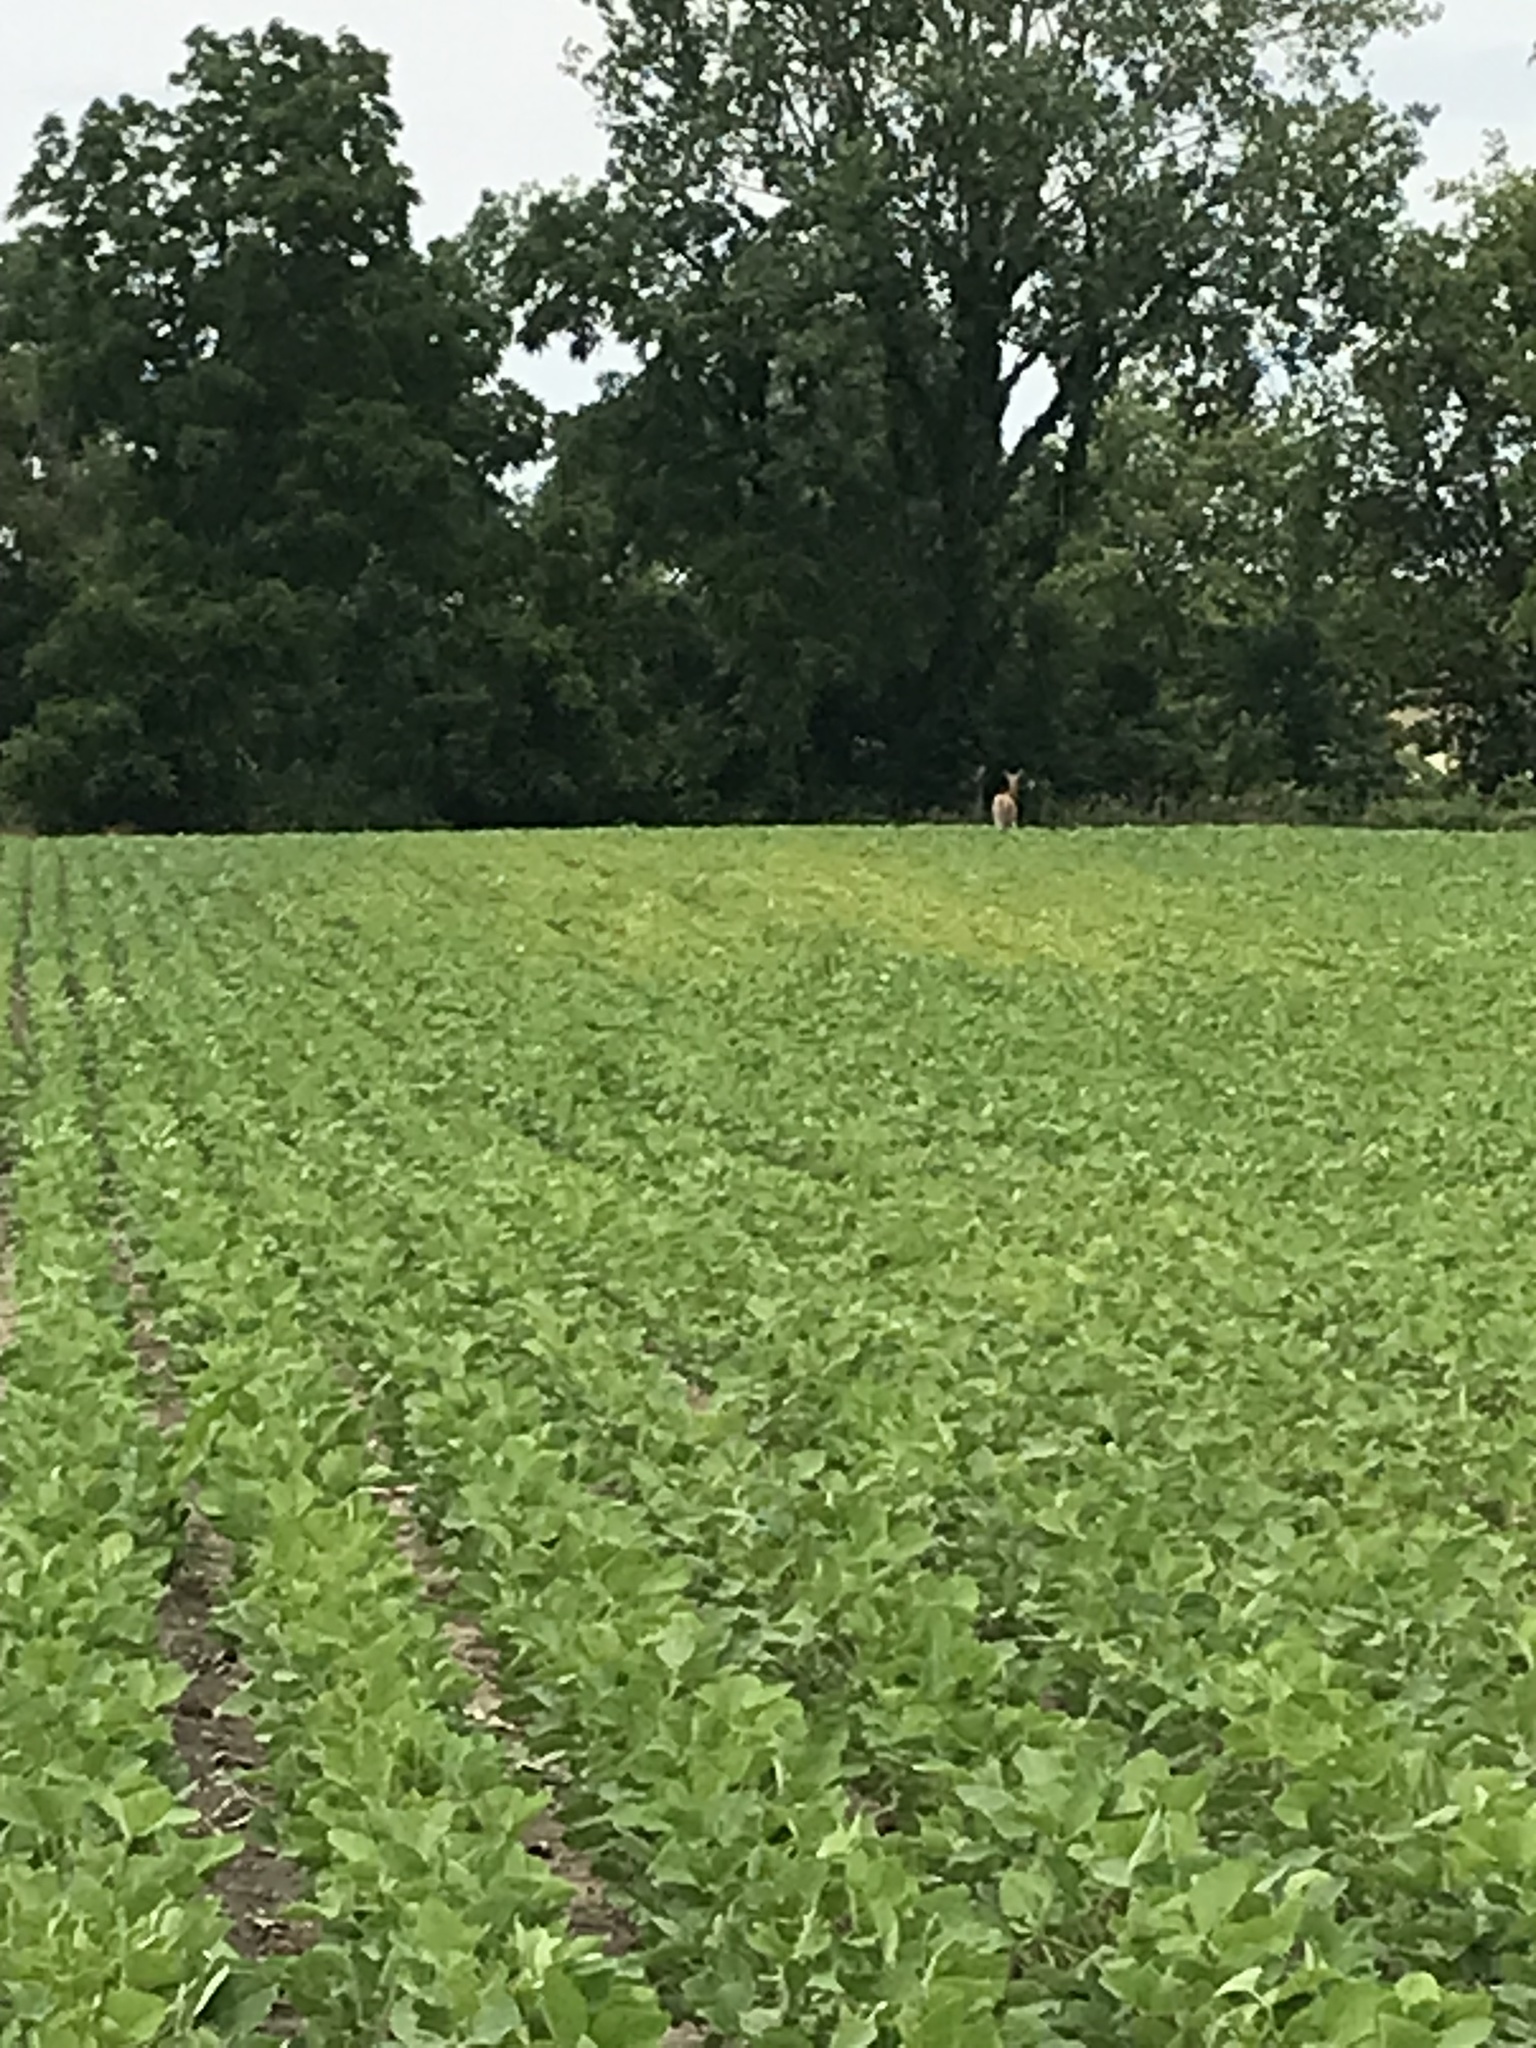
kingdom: Animalia
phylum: Chordata
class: Mammalia
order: Artiodactyla
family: Cervidae
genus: Odocoileus
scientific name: Odocoileus virginianus
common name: White-tailed deer
